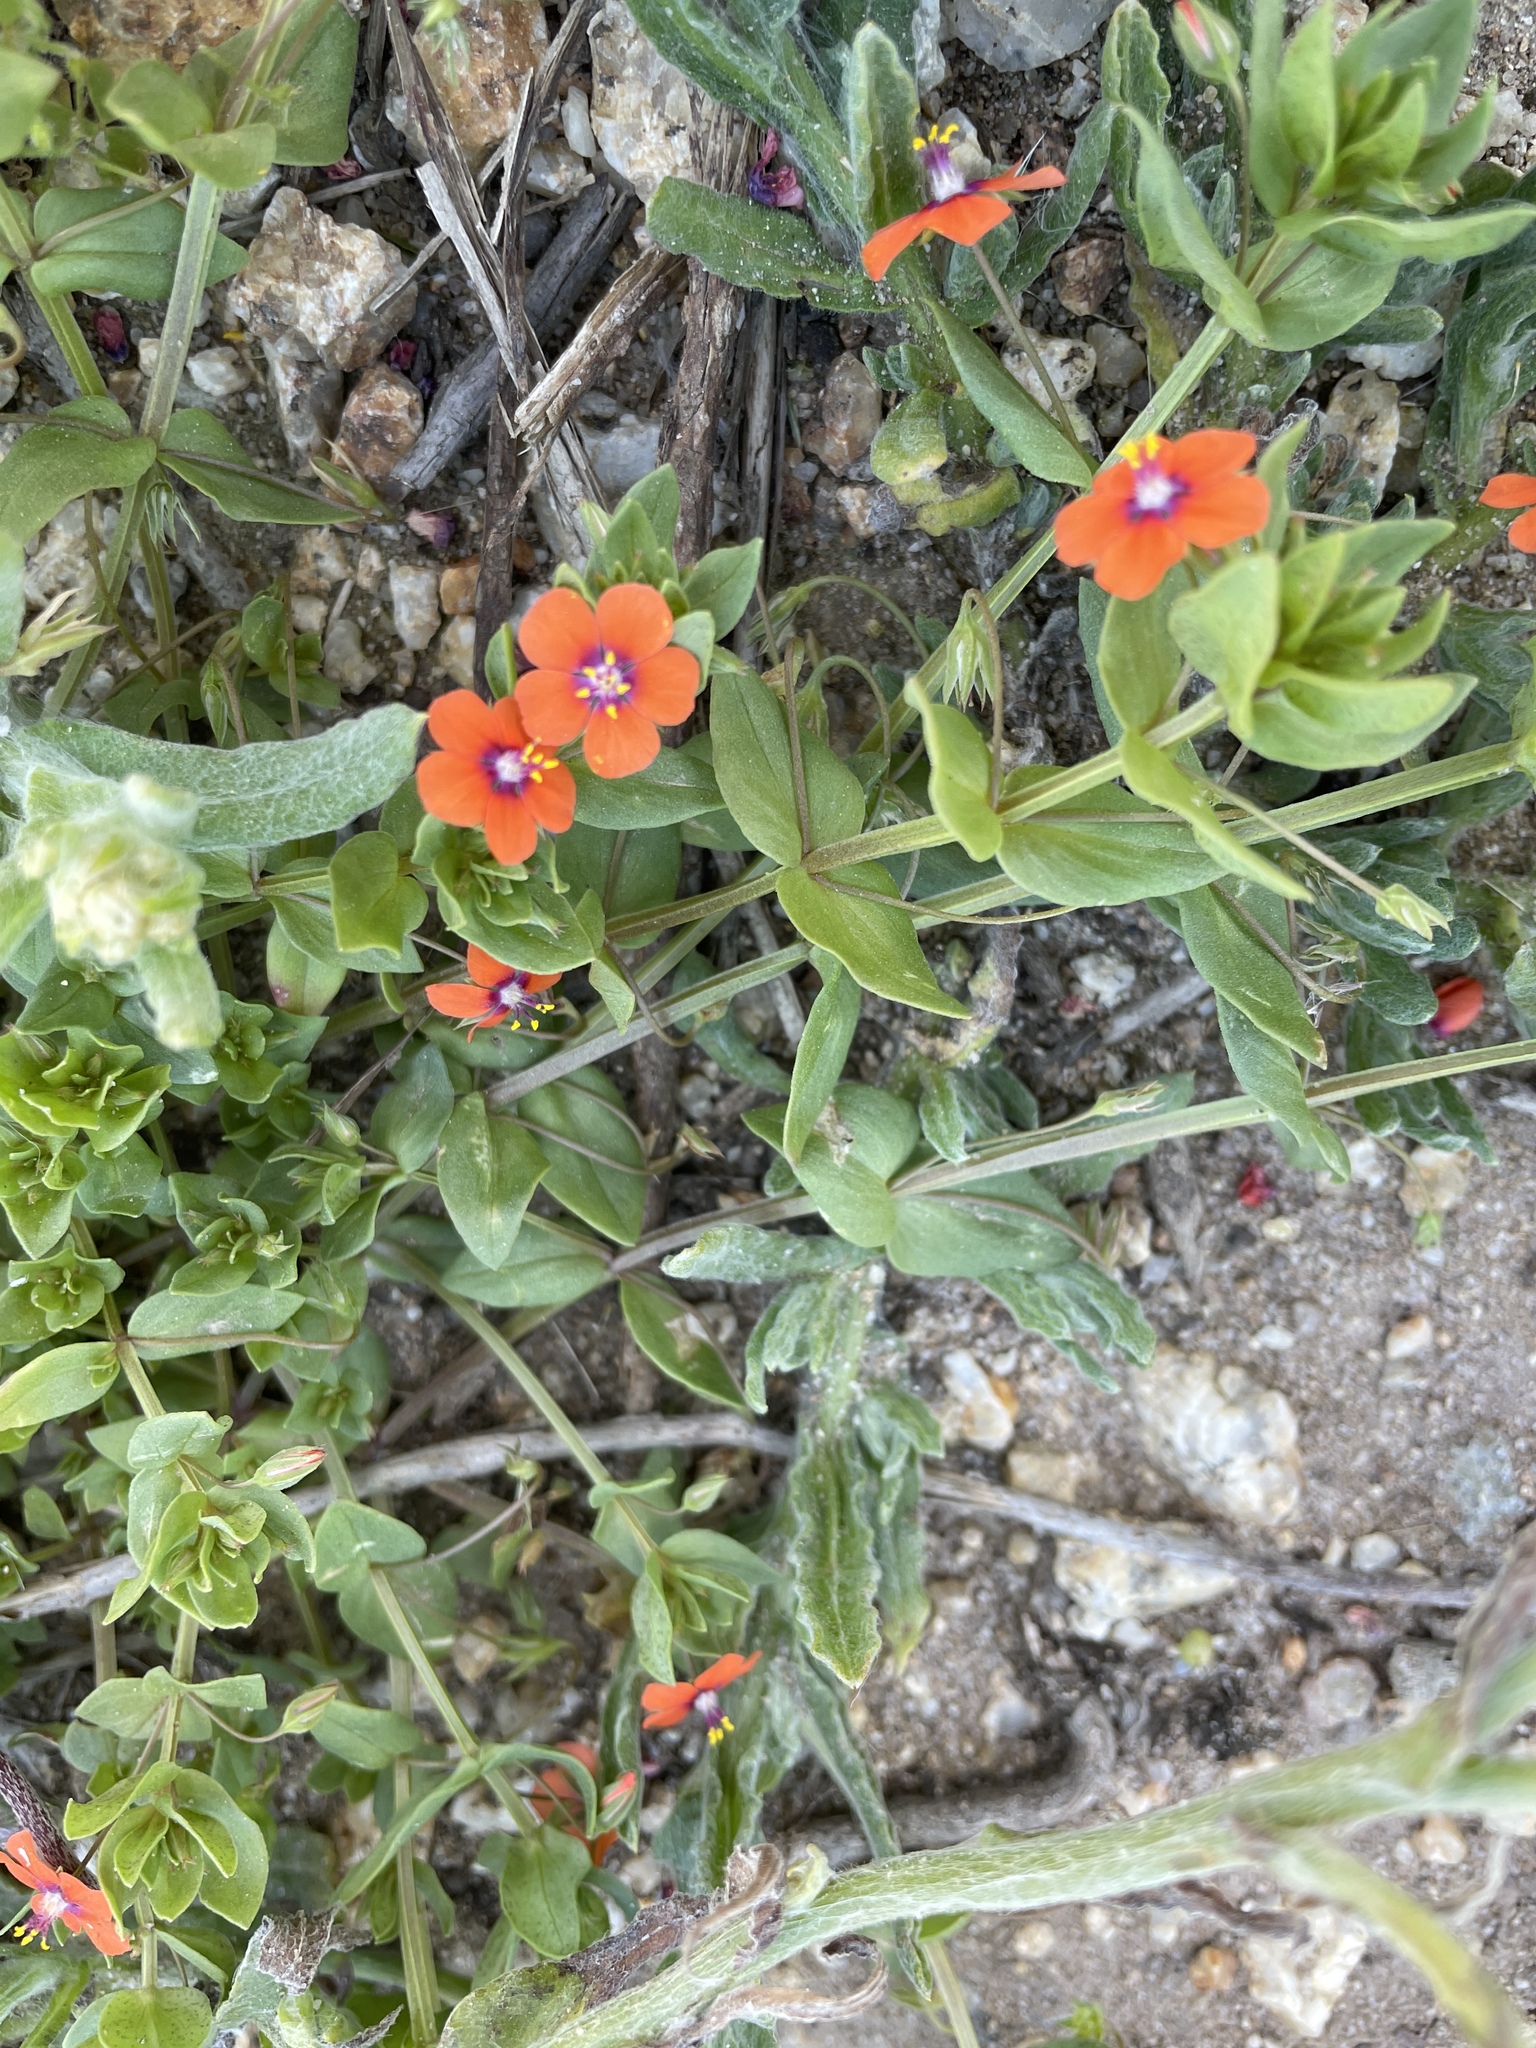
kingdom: Plantae
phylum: Tracheophyta
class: Magnoliopsida
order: Ericales
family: Primulaceae
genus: Lysimachia
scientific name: Lysimachia arvensis
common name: Scarlet pimpernel
